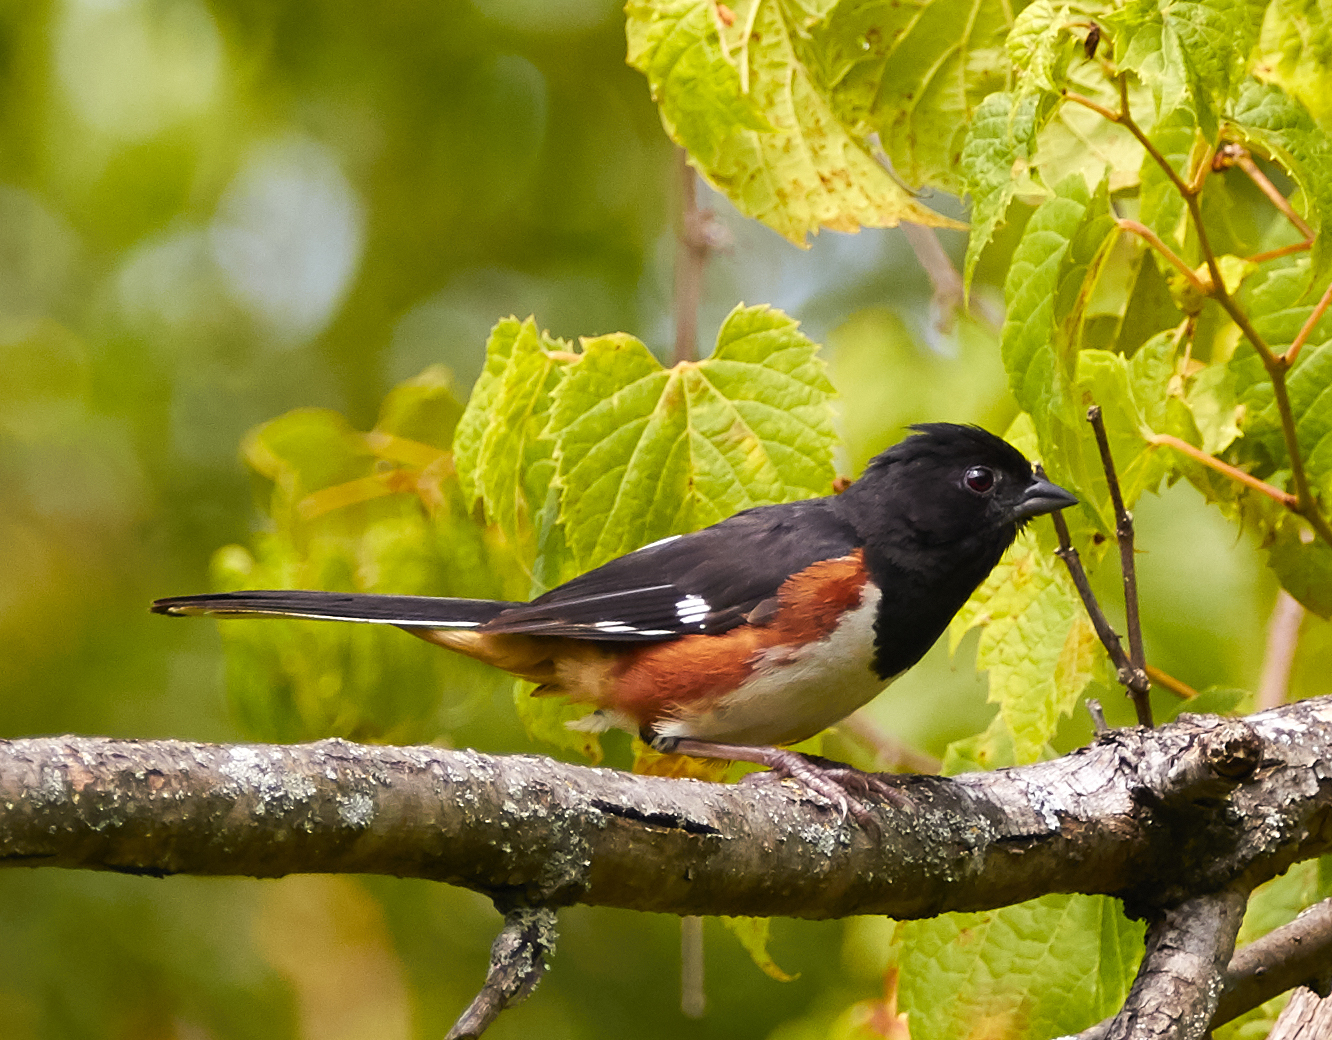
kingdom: Animalia
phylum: Chordata
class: Aves
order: Passeriformes
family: Passerellidae
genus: Pipilo
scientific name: Pipilo erythrophthalmus
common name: Eastern towhee
